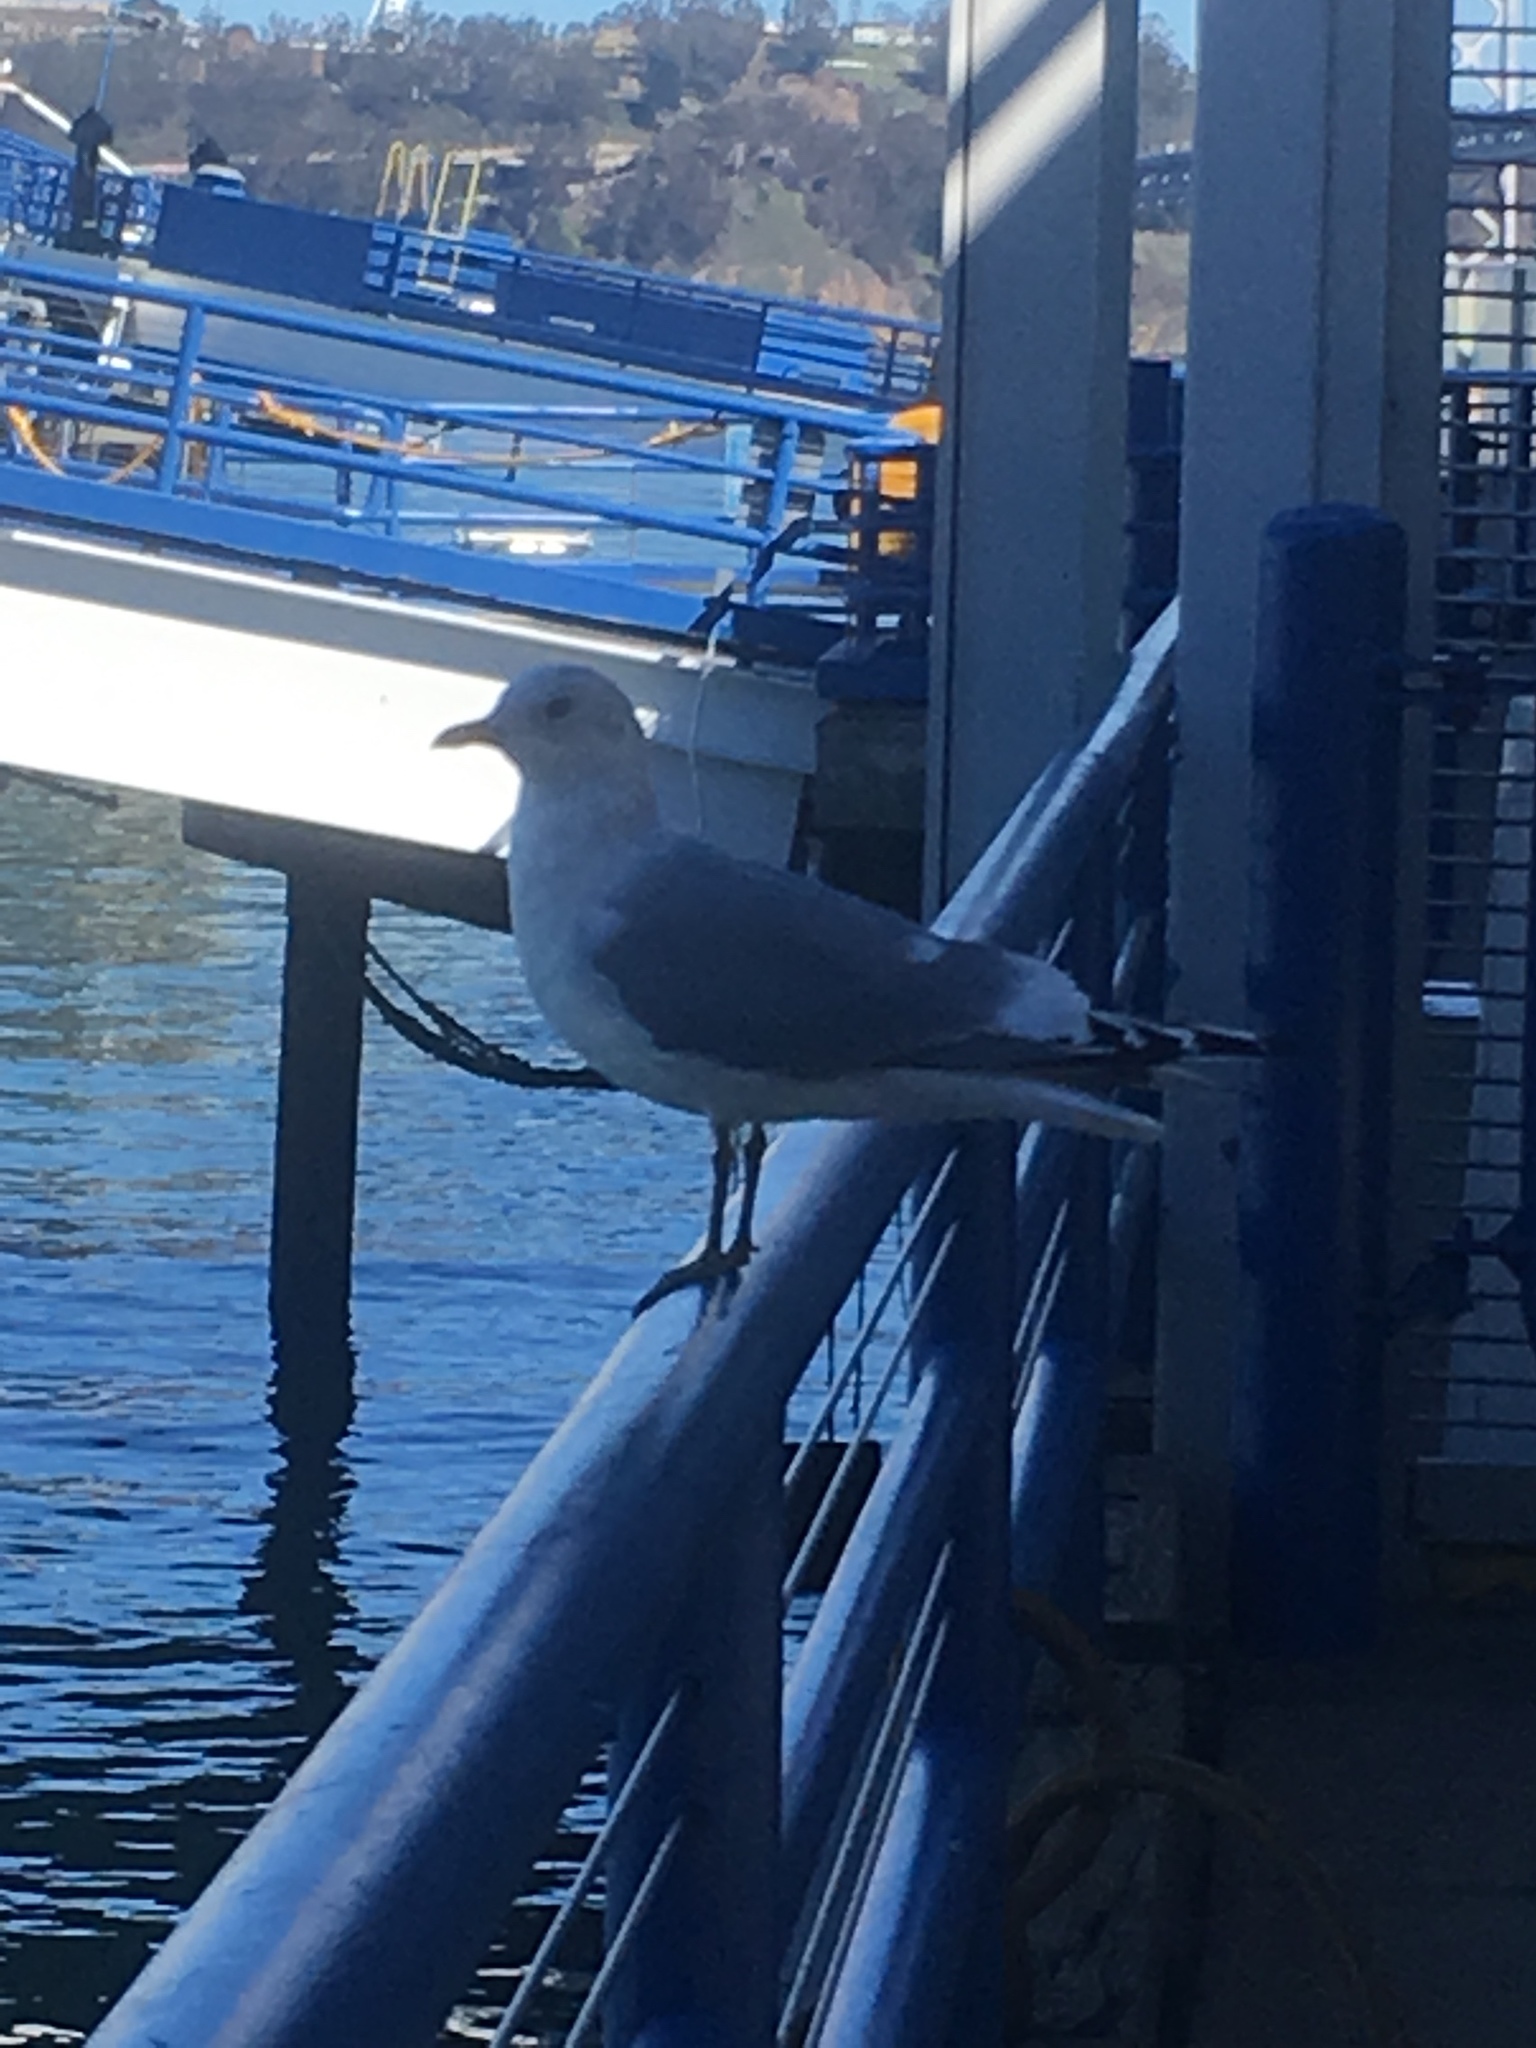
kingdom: Animalia
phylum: Chordata
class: Aves
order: Charadriiformes
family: Laridae
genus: Larus
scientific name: Larus brachyrhynchus
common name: Short-billed gull
